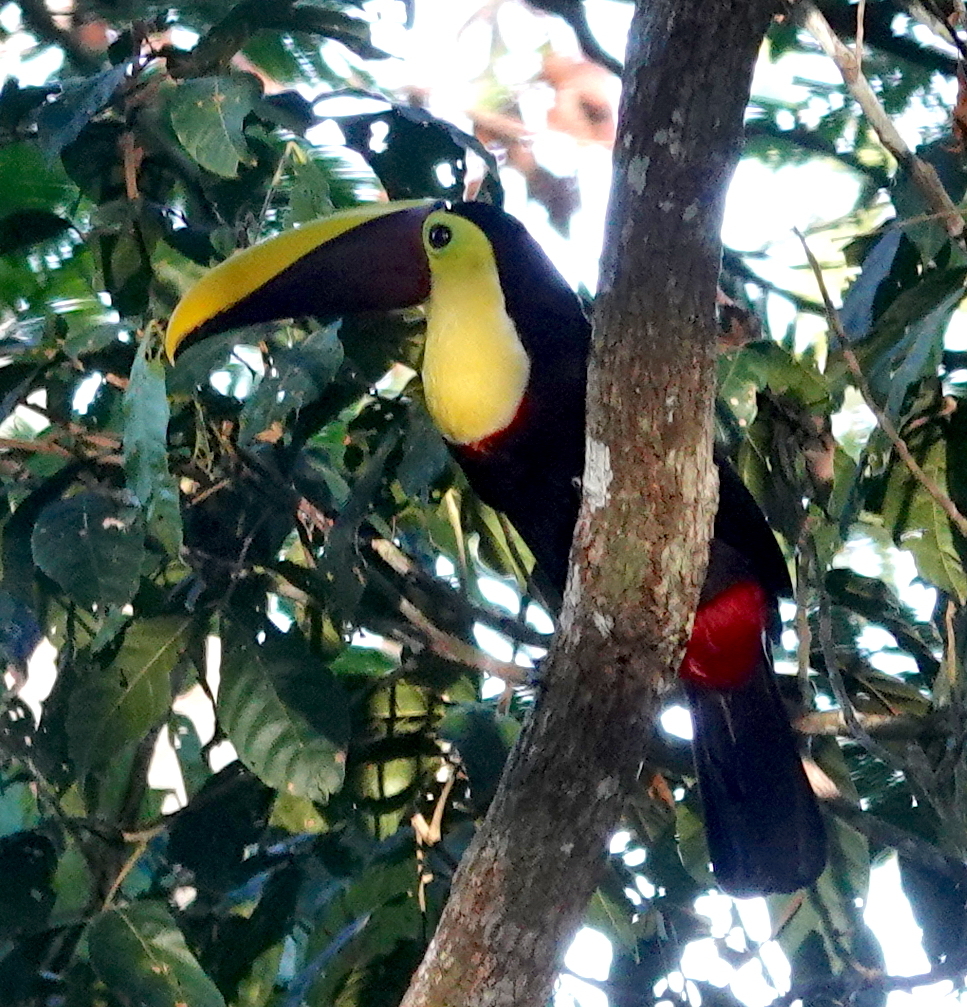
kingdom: Animalia
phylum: Chordata
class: Aves
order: Piciformes
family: Ramphastidae
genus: Ramphastos
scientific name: Ramphastos ambiguus
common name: Yellow-throated toucan
